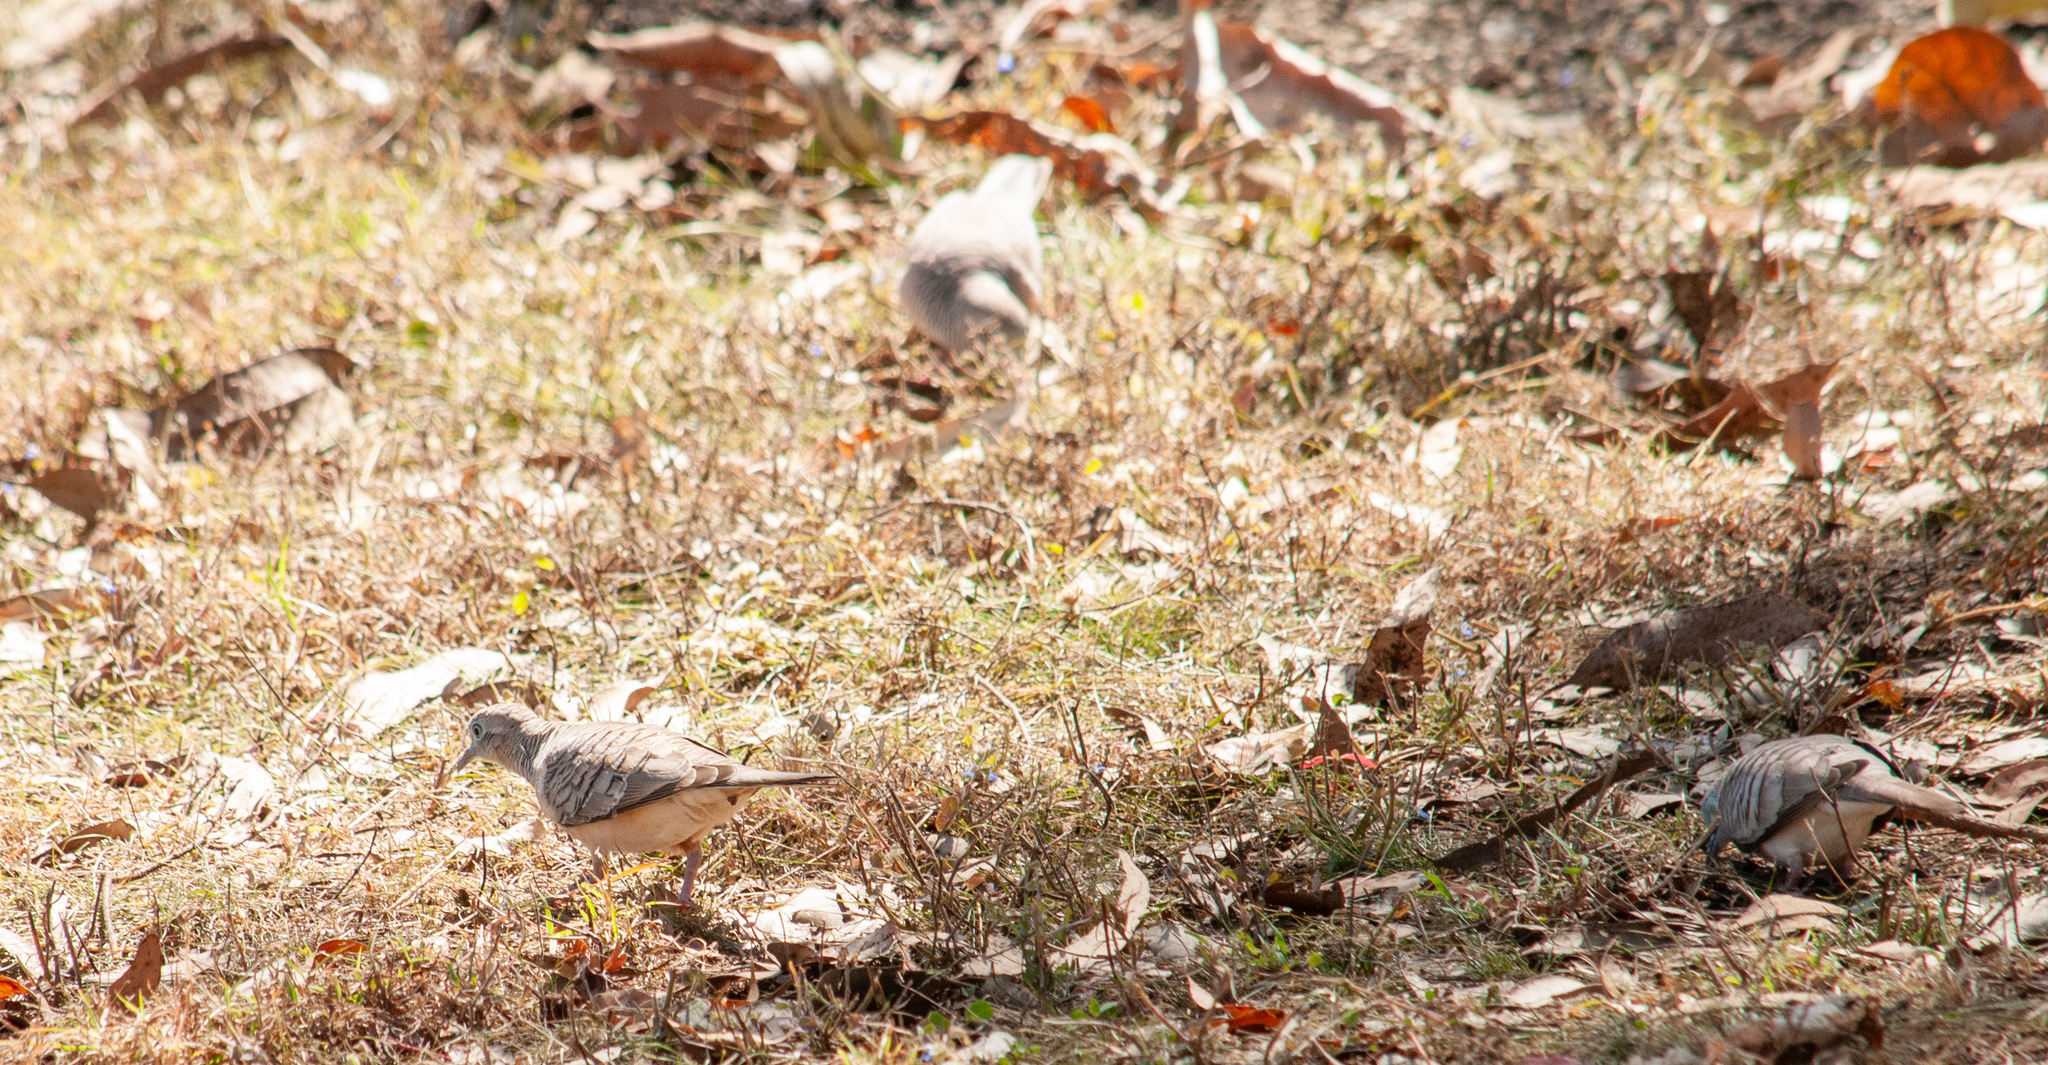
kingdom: Animalia
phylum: Chordata
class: Aves
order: Columbiformes
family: Columbidae
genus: Geopelia
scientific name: Geopelia placida
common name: Peaceful dove
